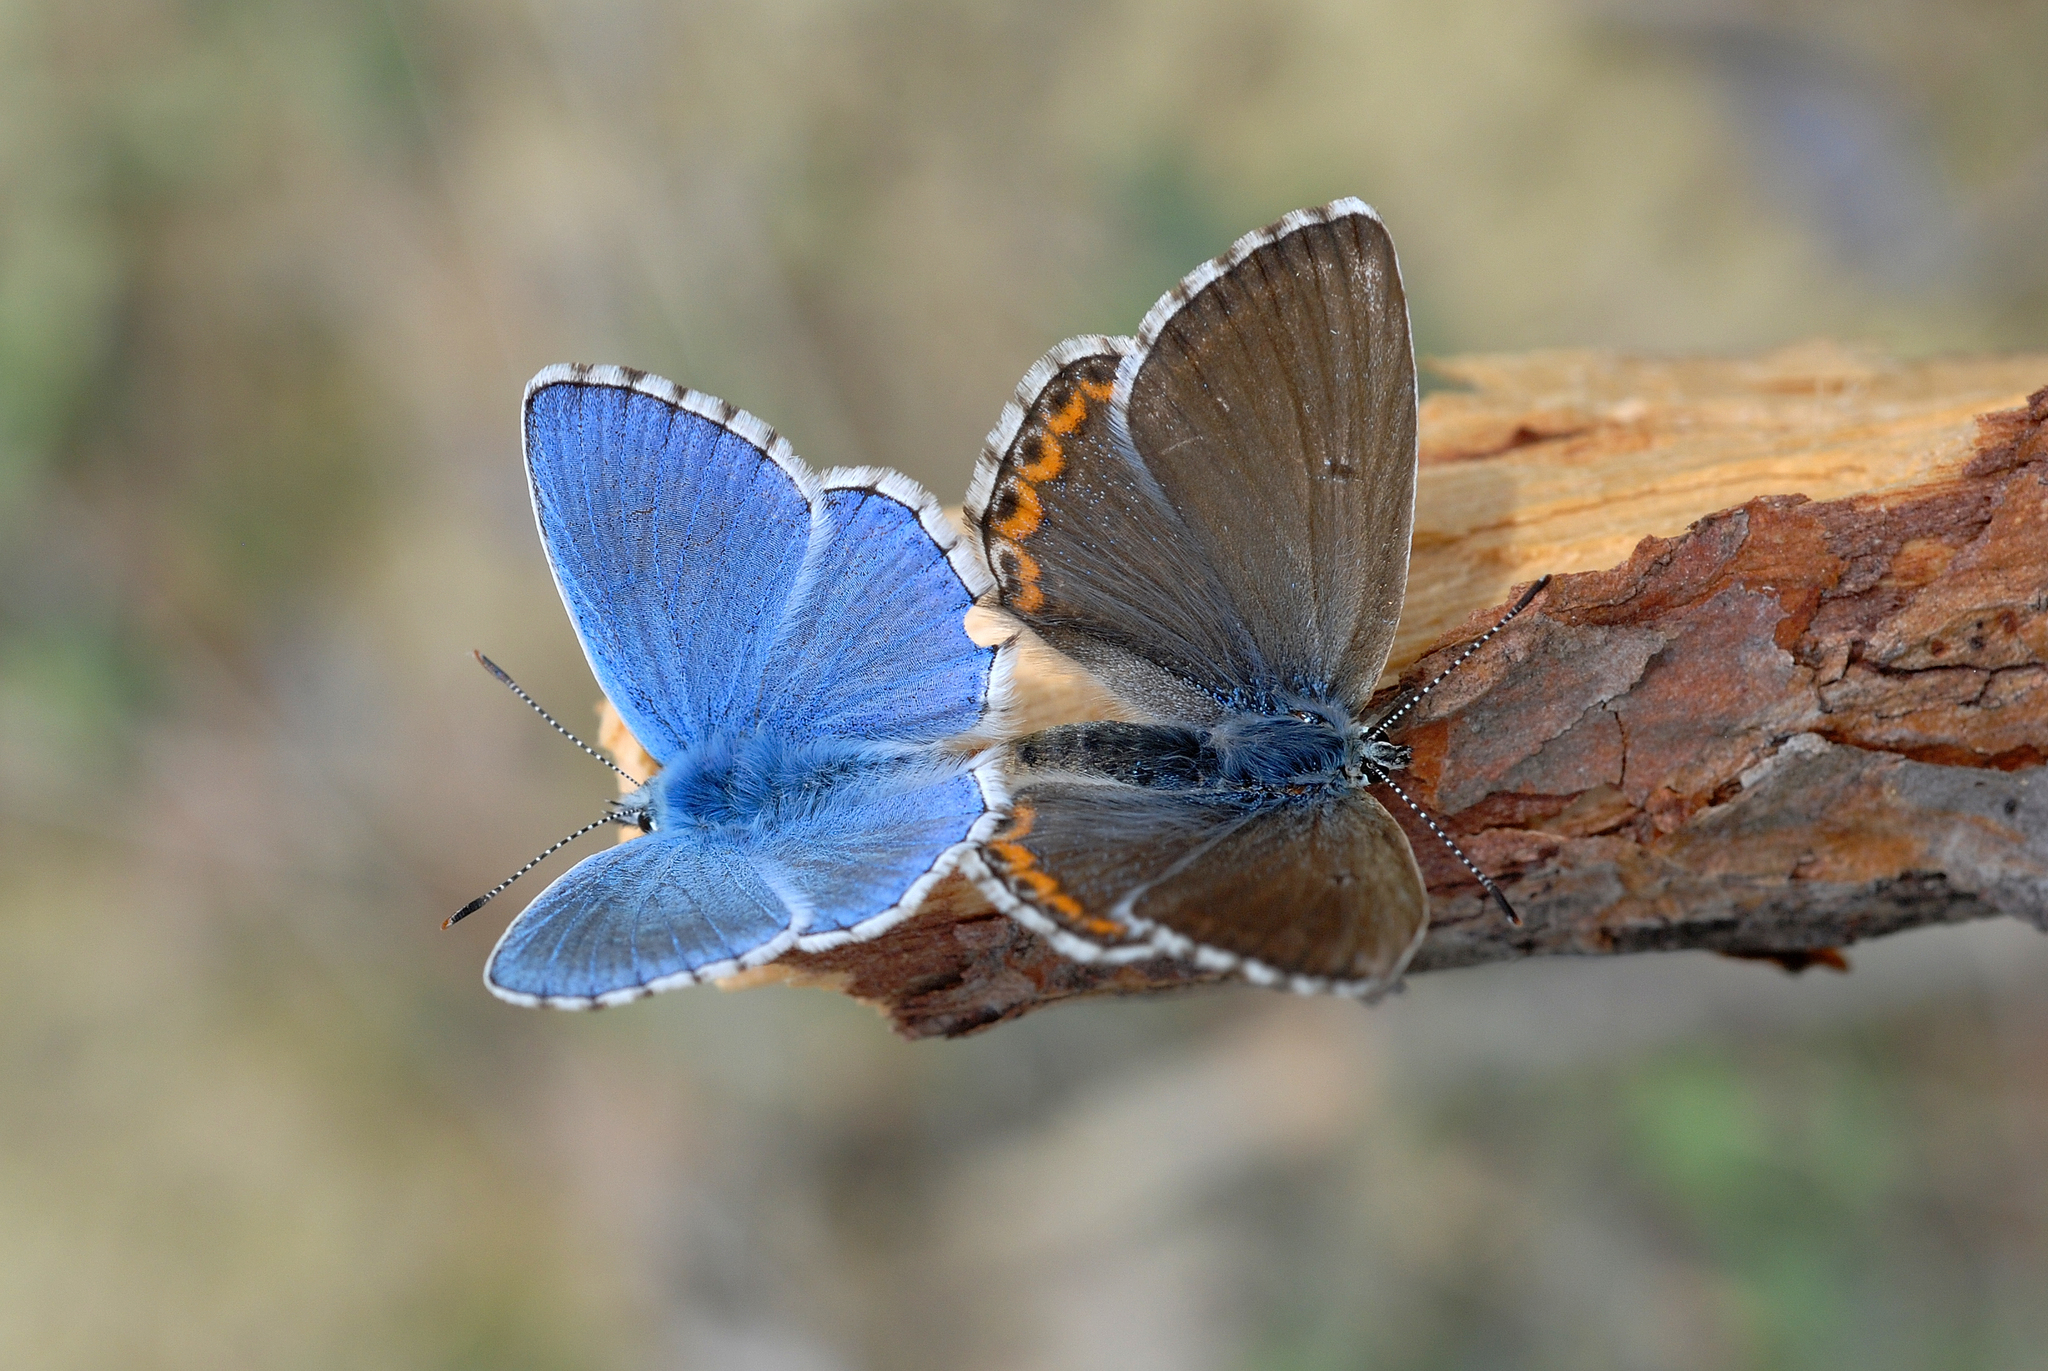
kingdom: Animalia
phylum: Arthropoda
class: Insecta
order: Lepidoptera
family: Lycaenidae
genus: Lysandra
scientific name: Lysandra bellargus
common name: Adonis blue
